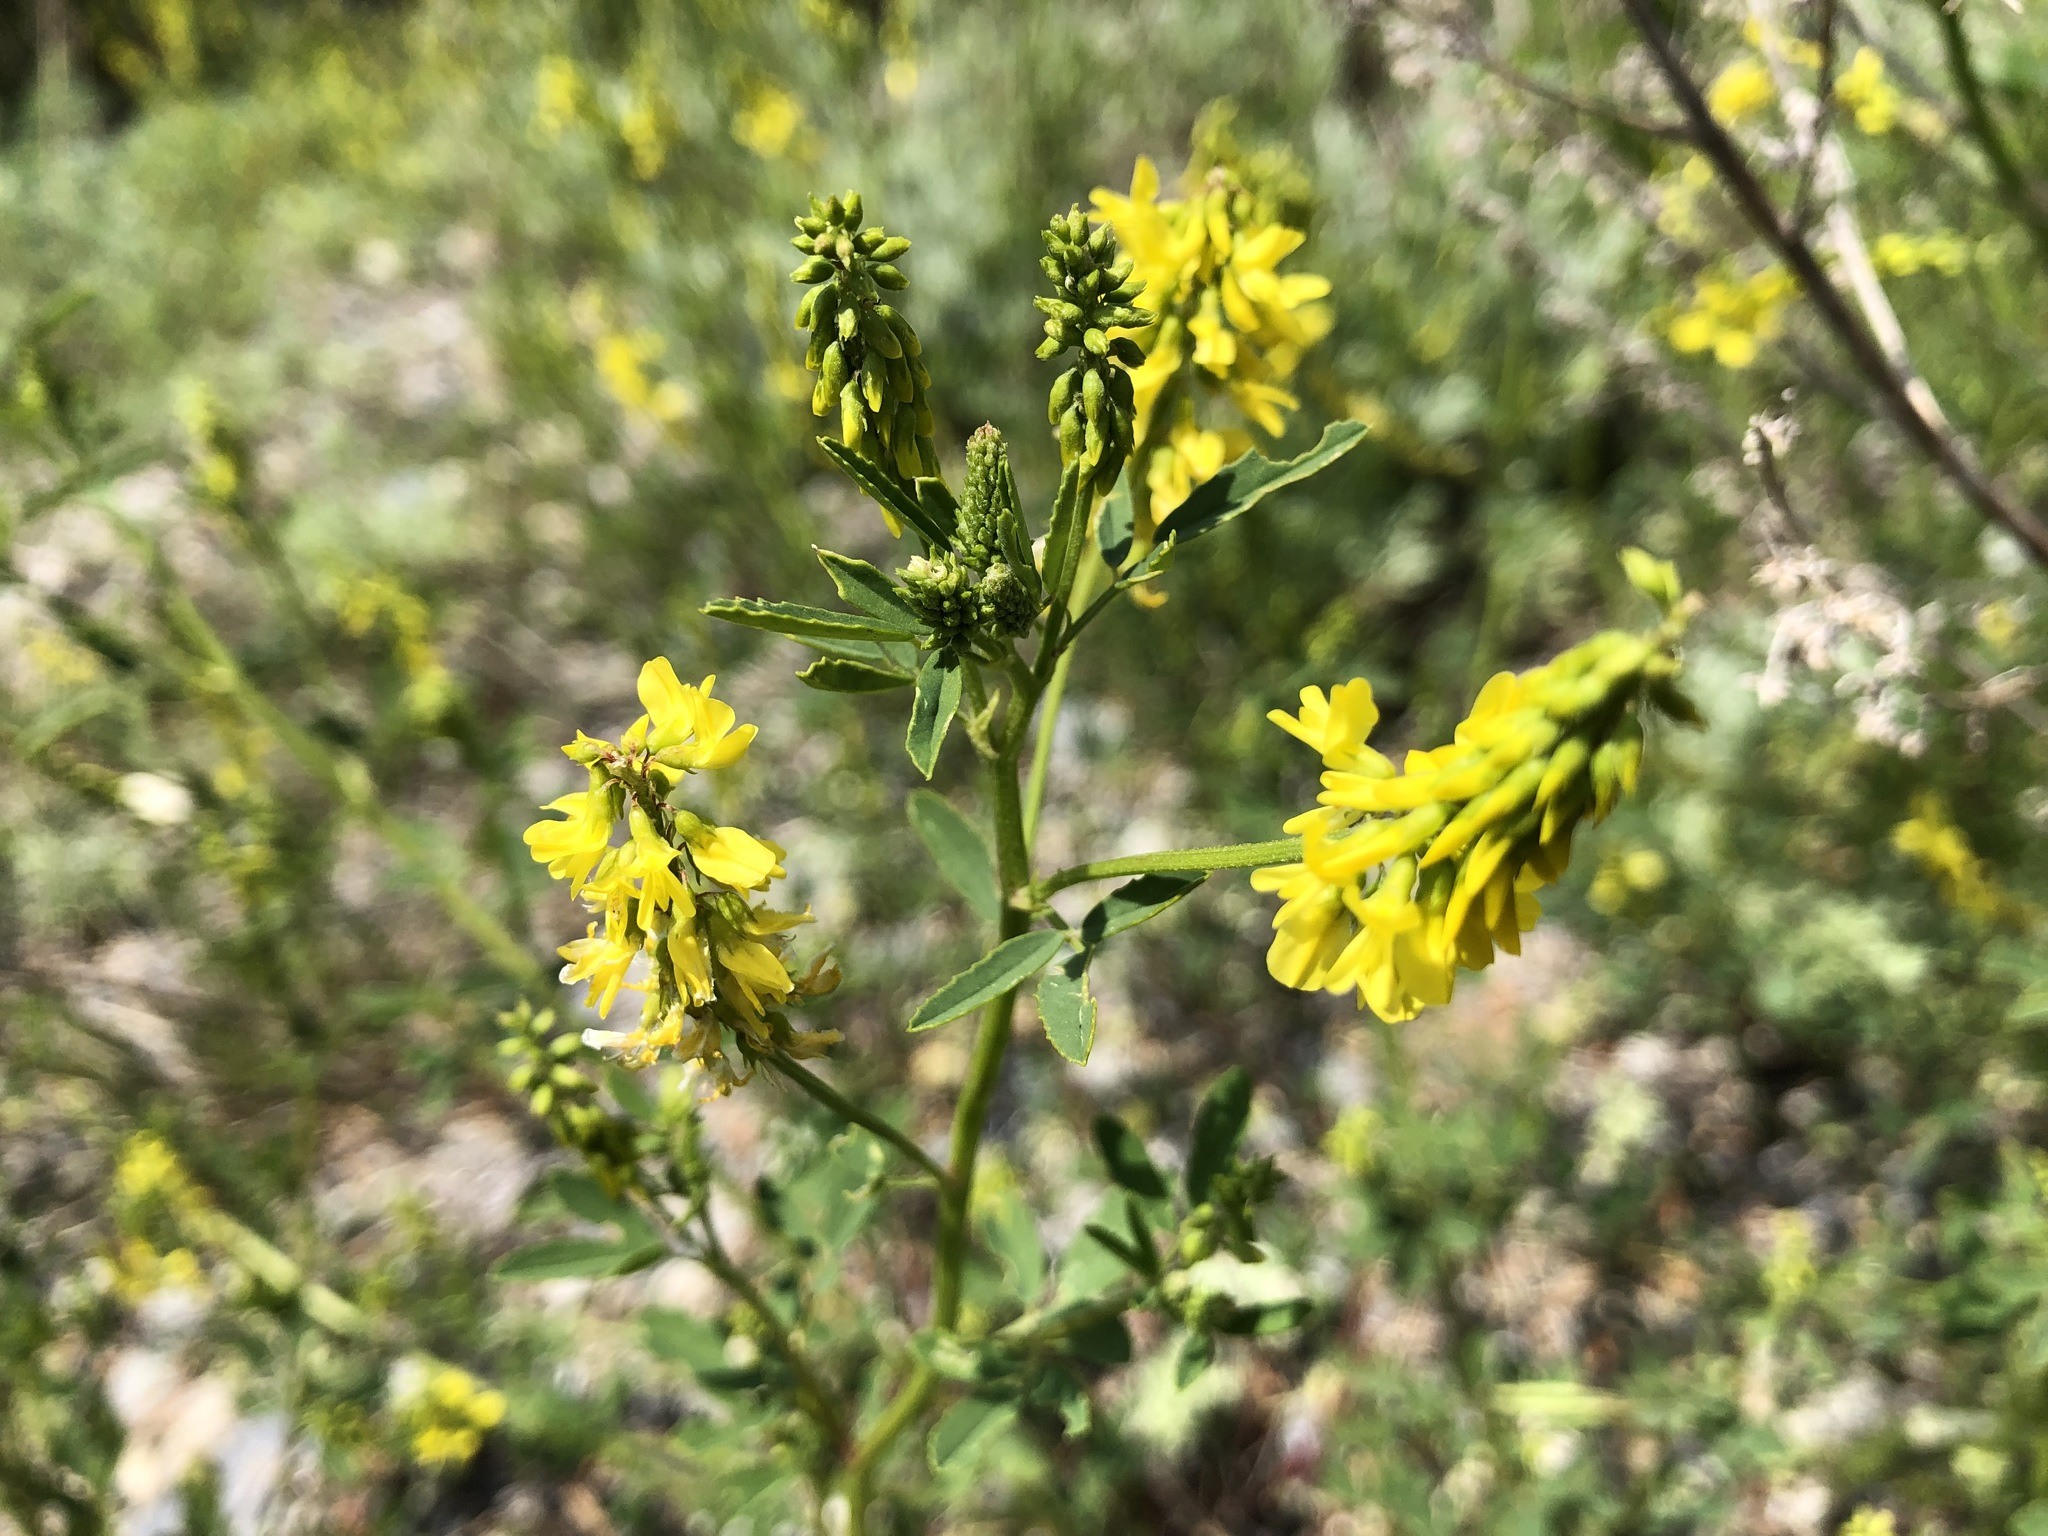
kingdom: Plantae
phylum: Tracheophyta
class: Magnoliopsida
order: Fabales
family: Fabaceae
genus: Melilotus
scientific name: Melilotus officinalis
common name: Sweetclover
